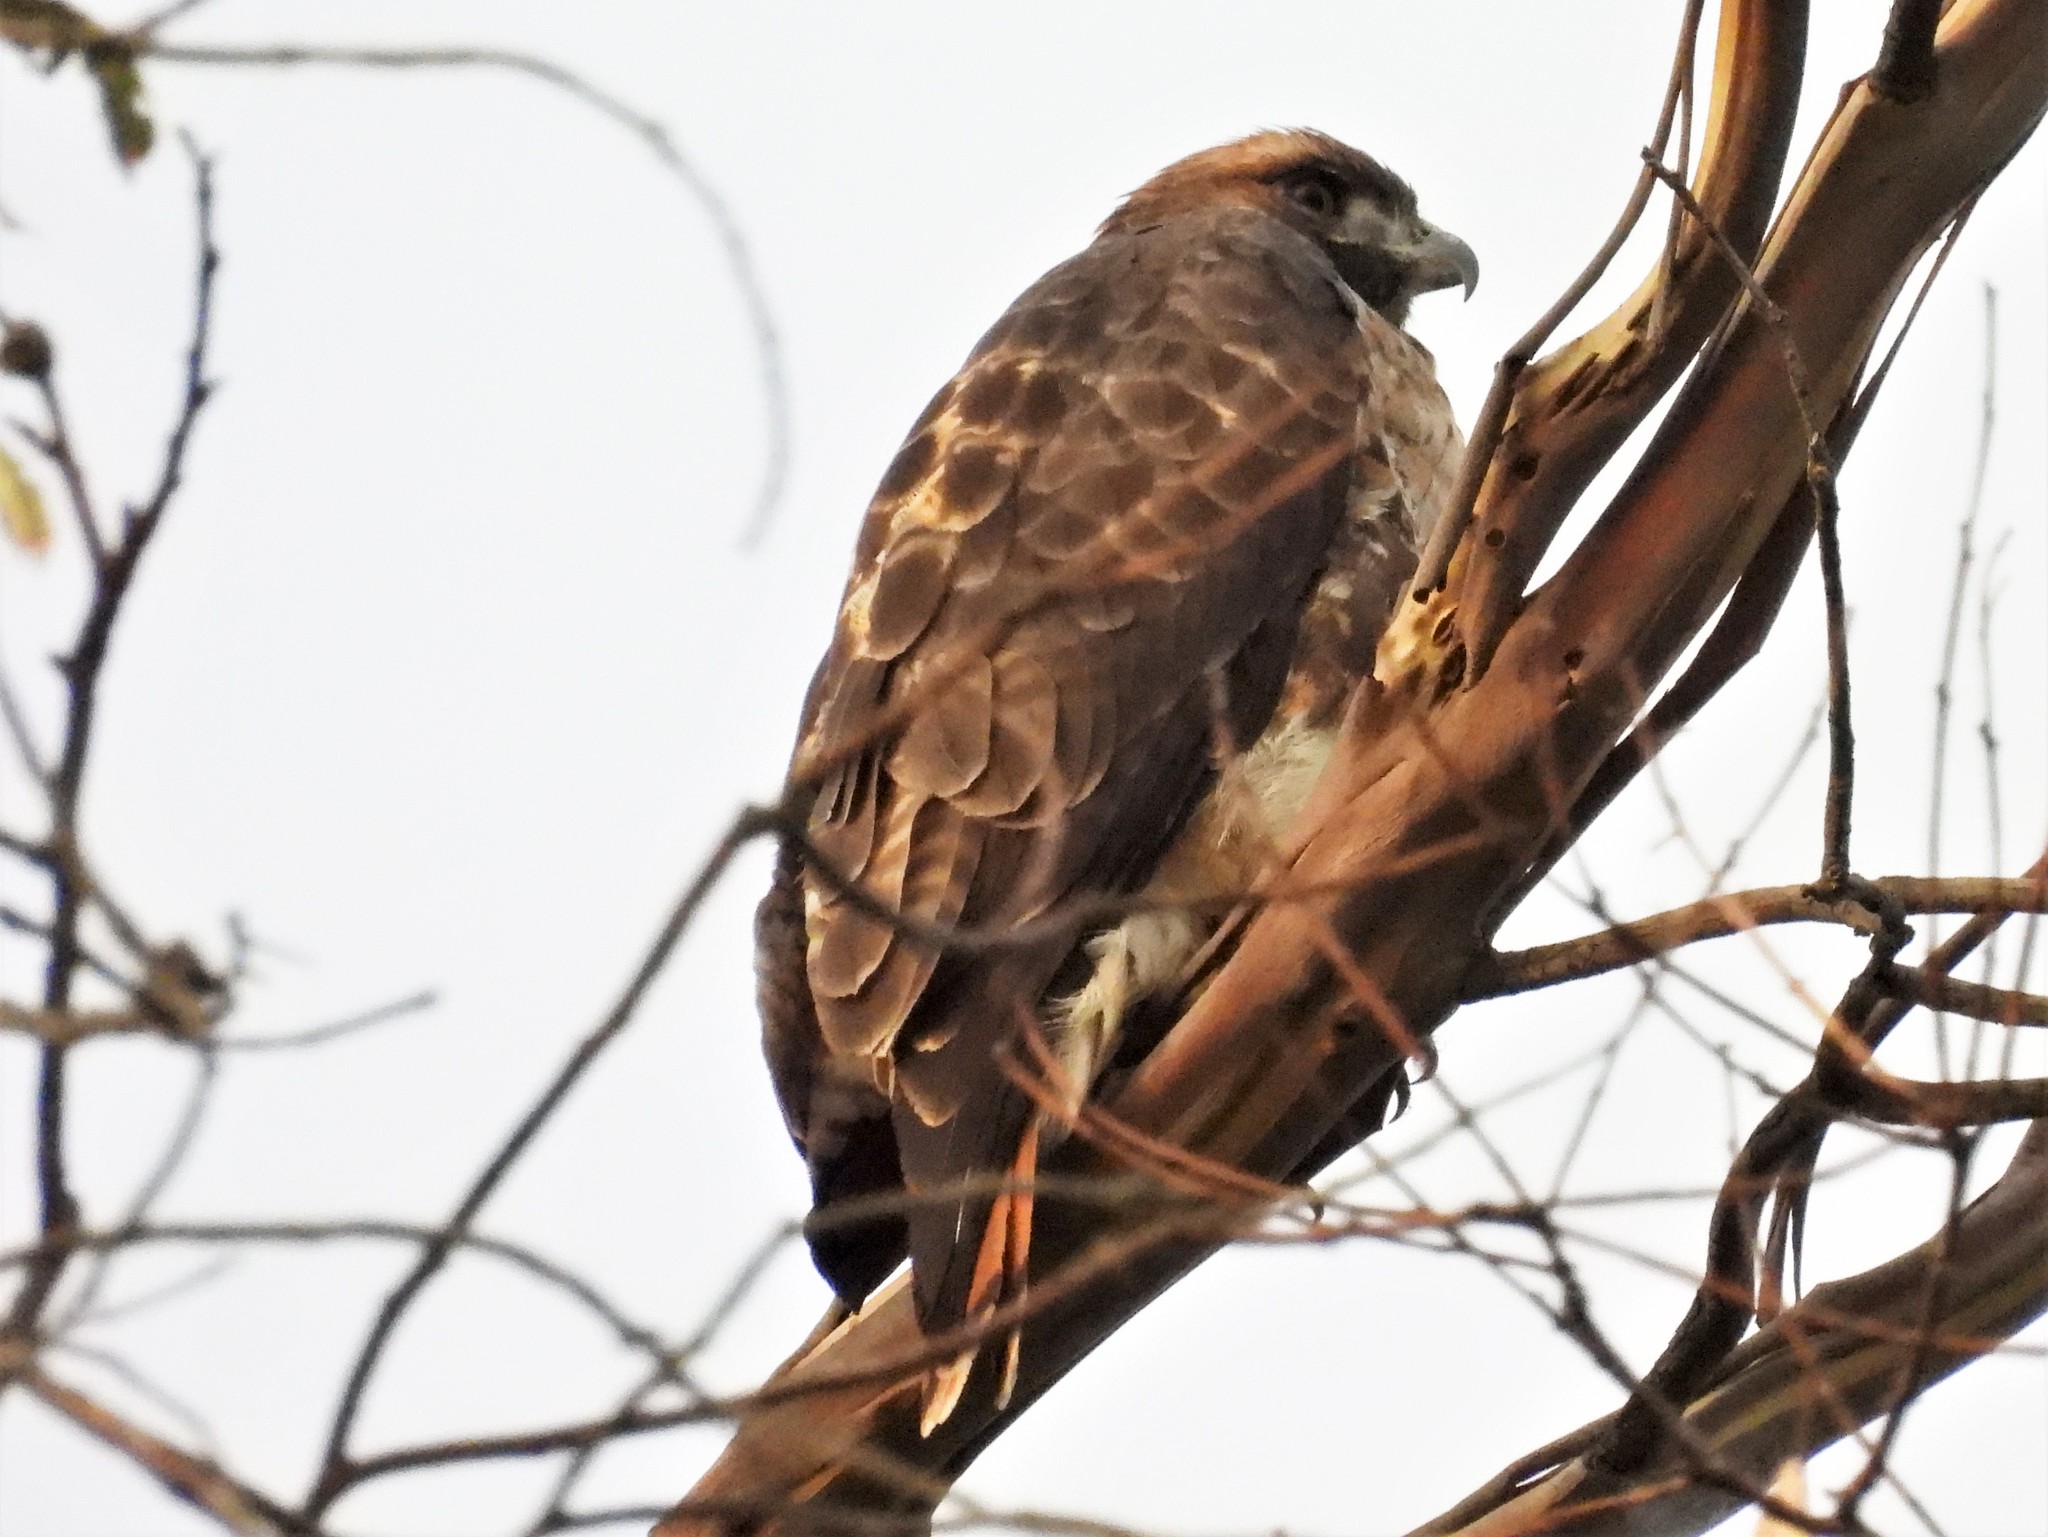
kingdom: Animalia
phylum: Chordata
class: Aves
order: Accipitriformes
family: Accipitridae
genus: Buteo
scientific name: Buteo jamaicensis
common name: Red-tailed hawk
